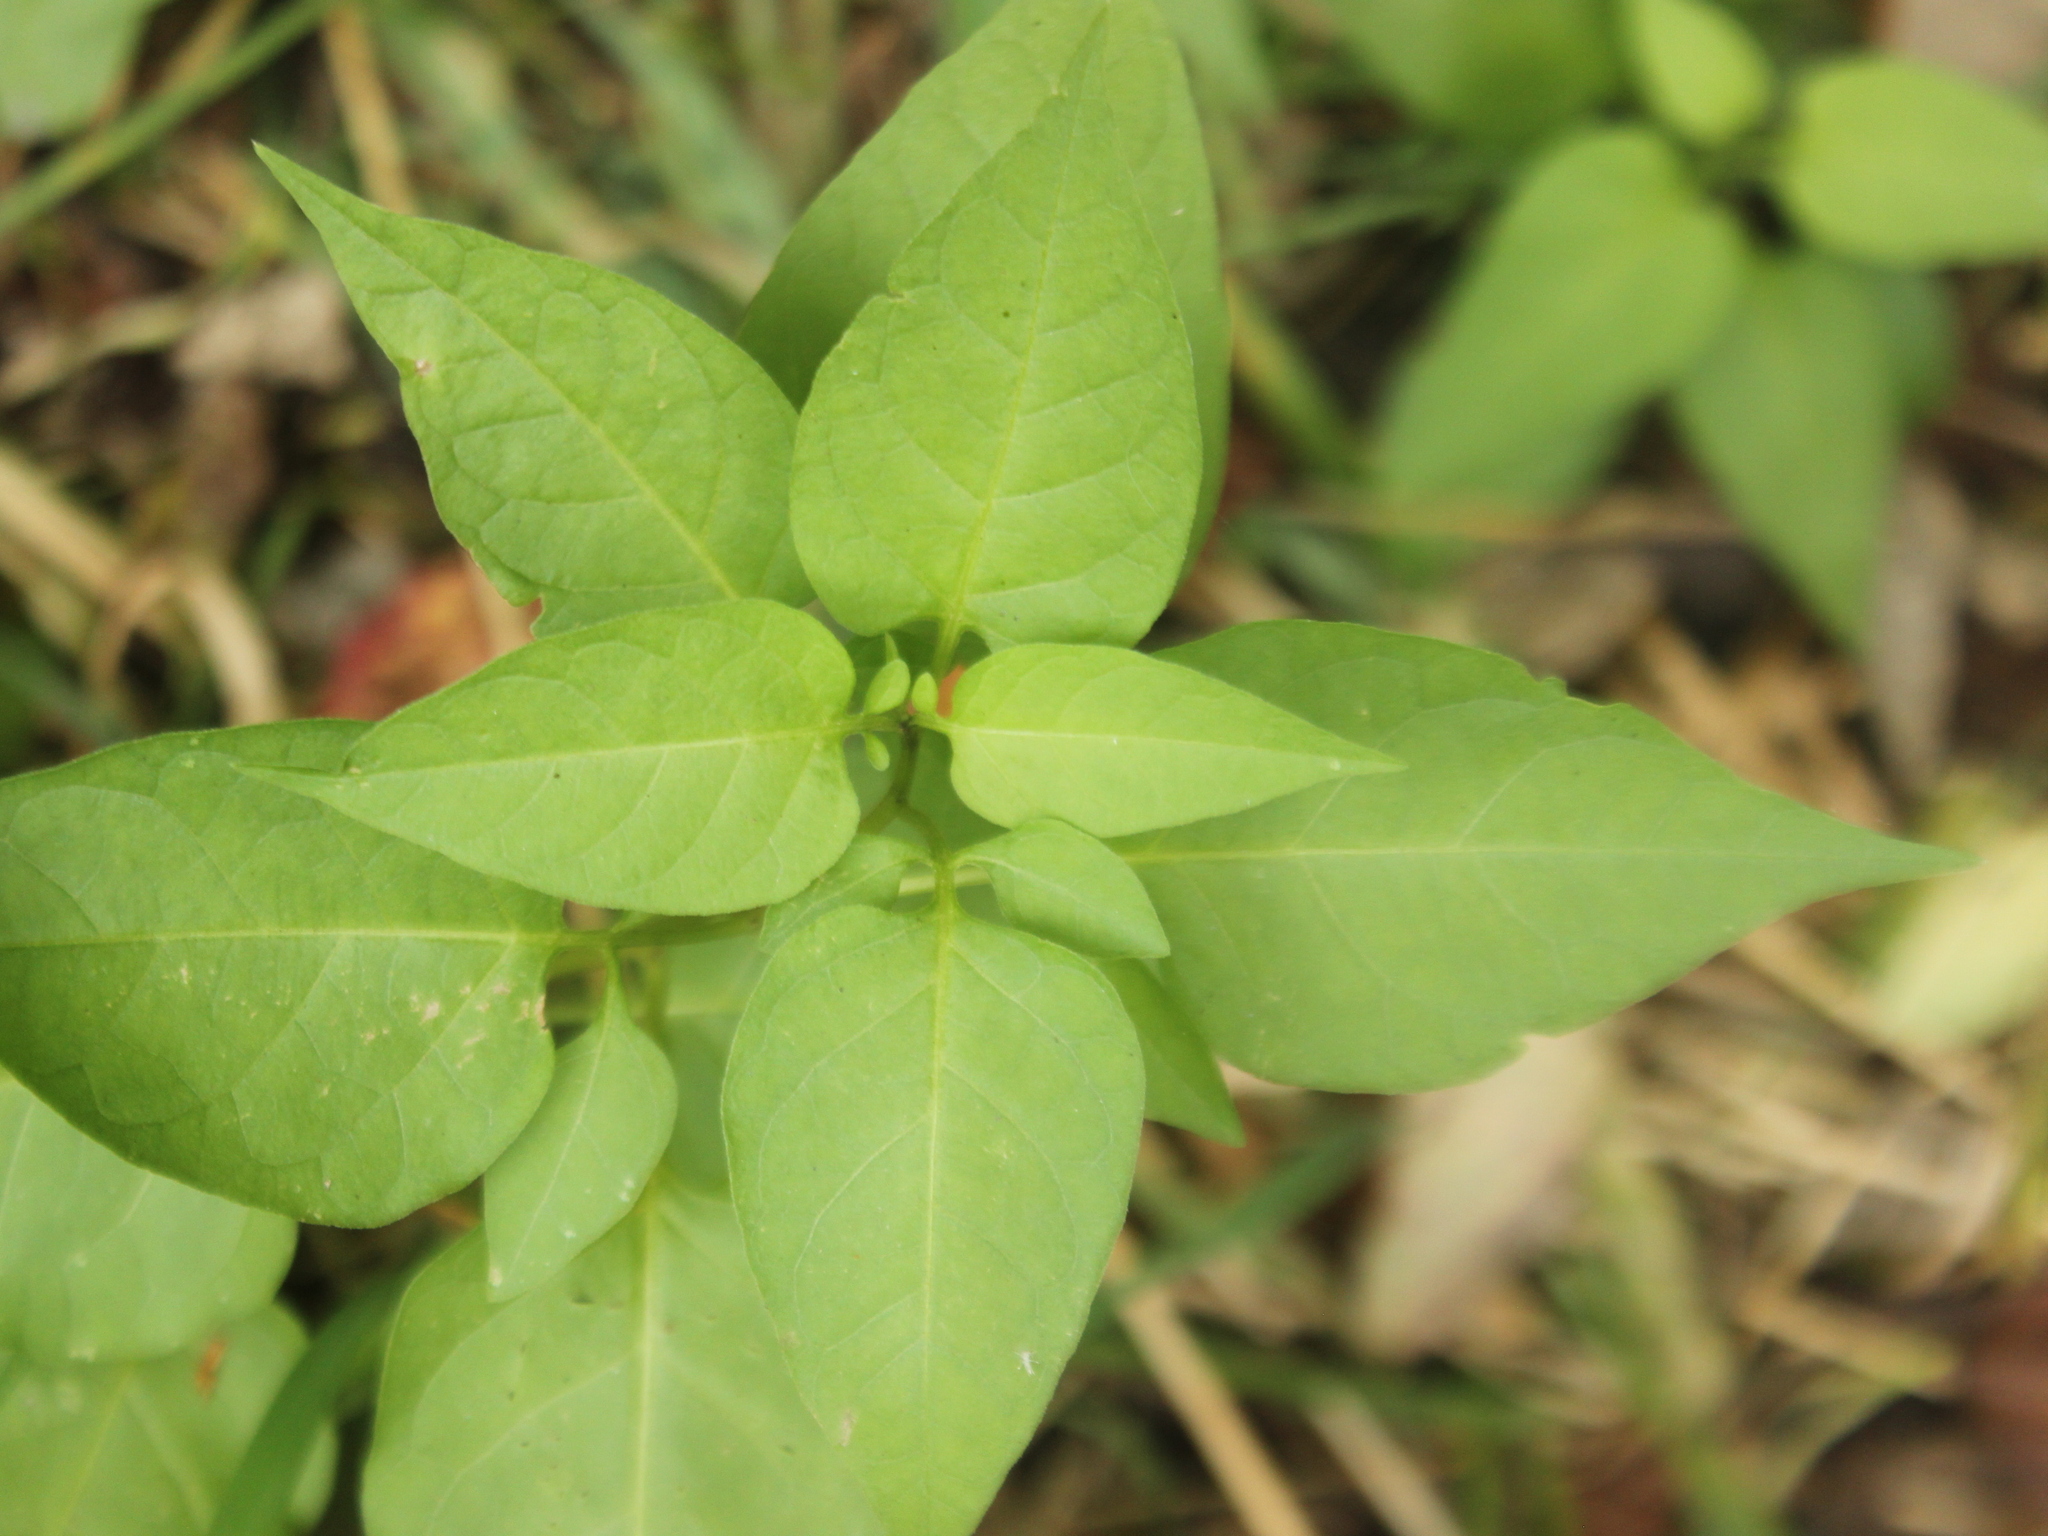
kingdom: Plantae
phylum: Tracheophyta
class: Magnoliopsida
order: Solanales
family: Solanaceae
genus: Solanum
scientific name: Solanum dulcamara
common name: Climbing nightshade
